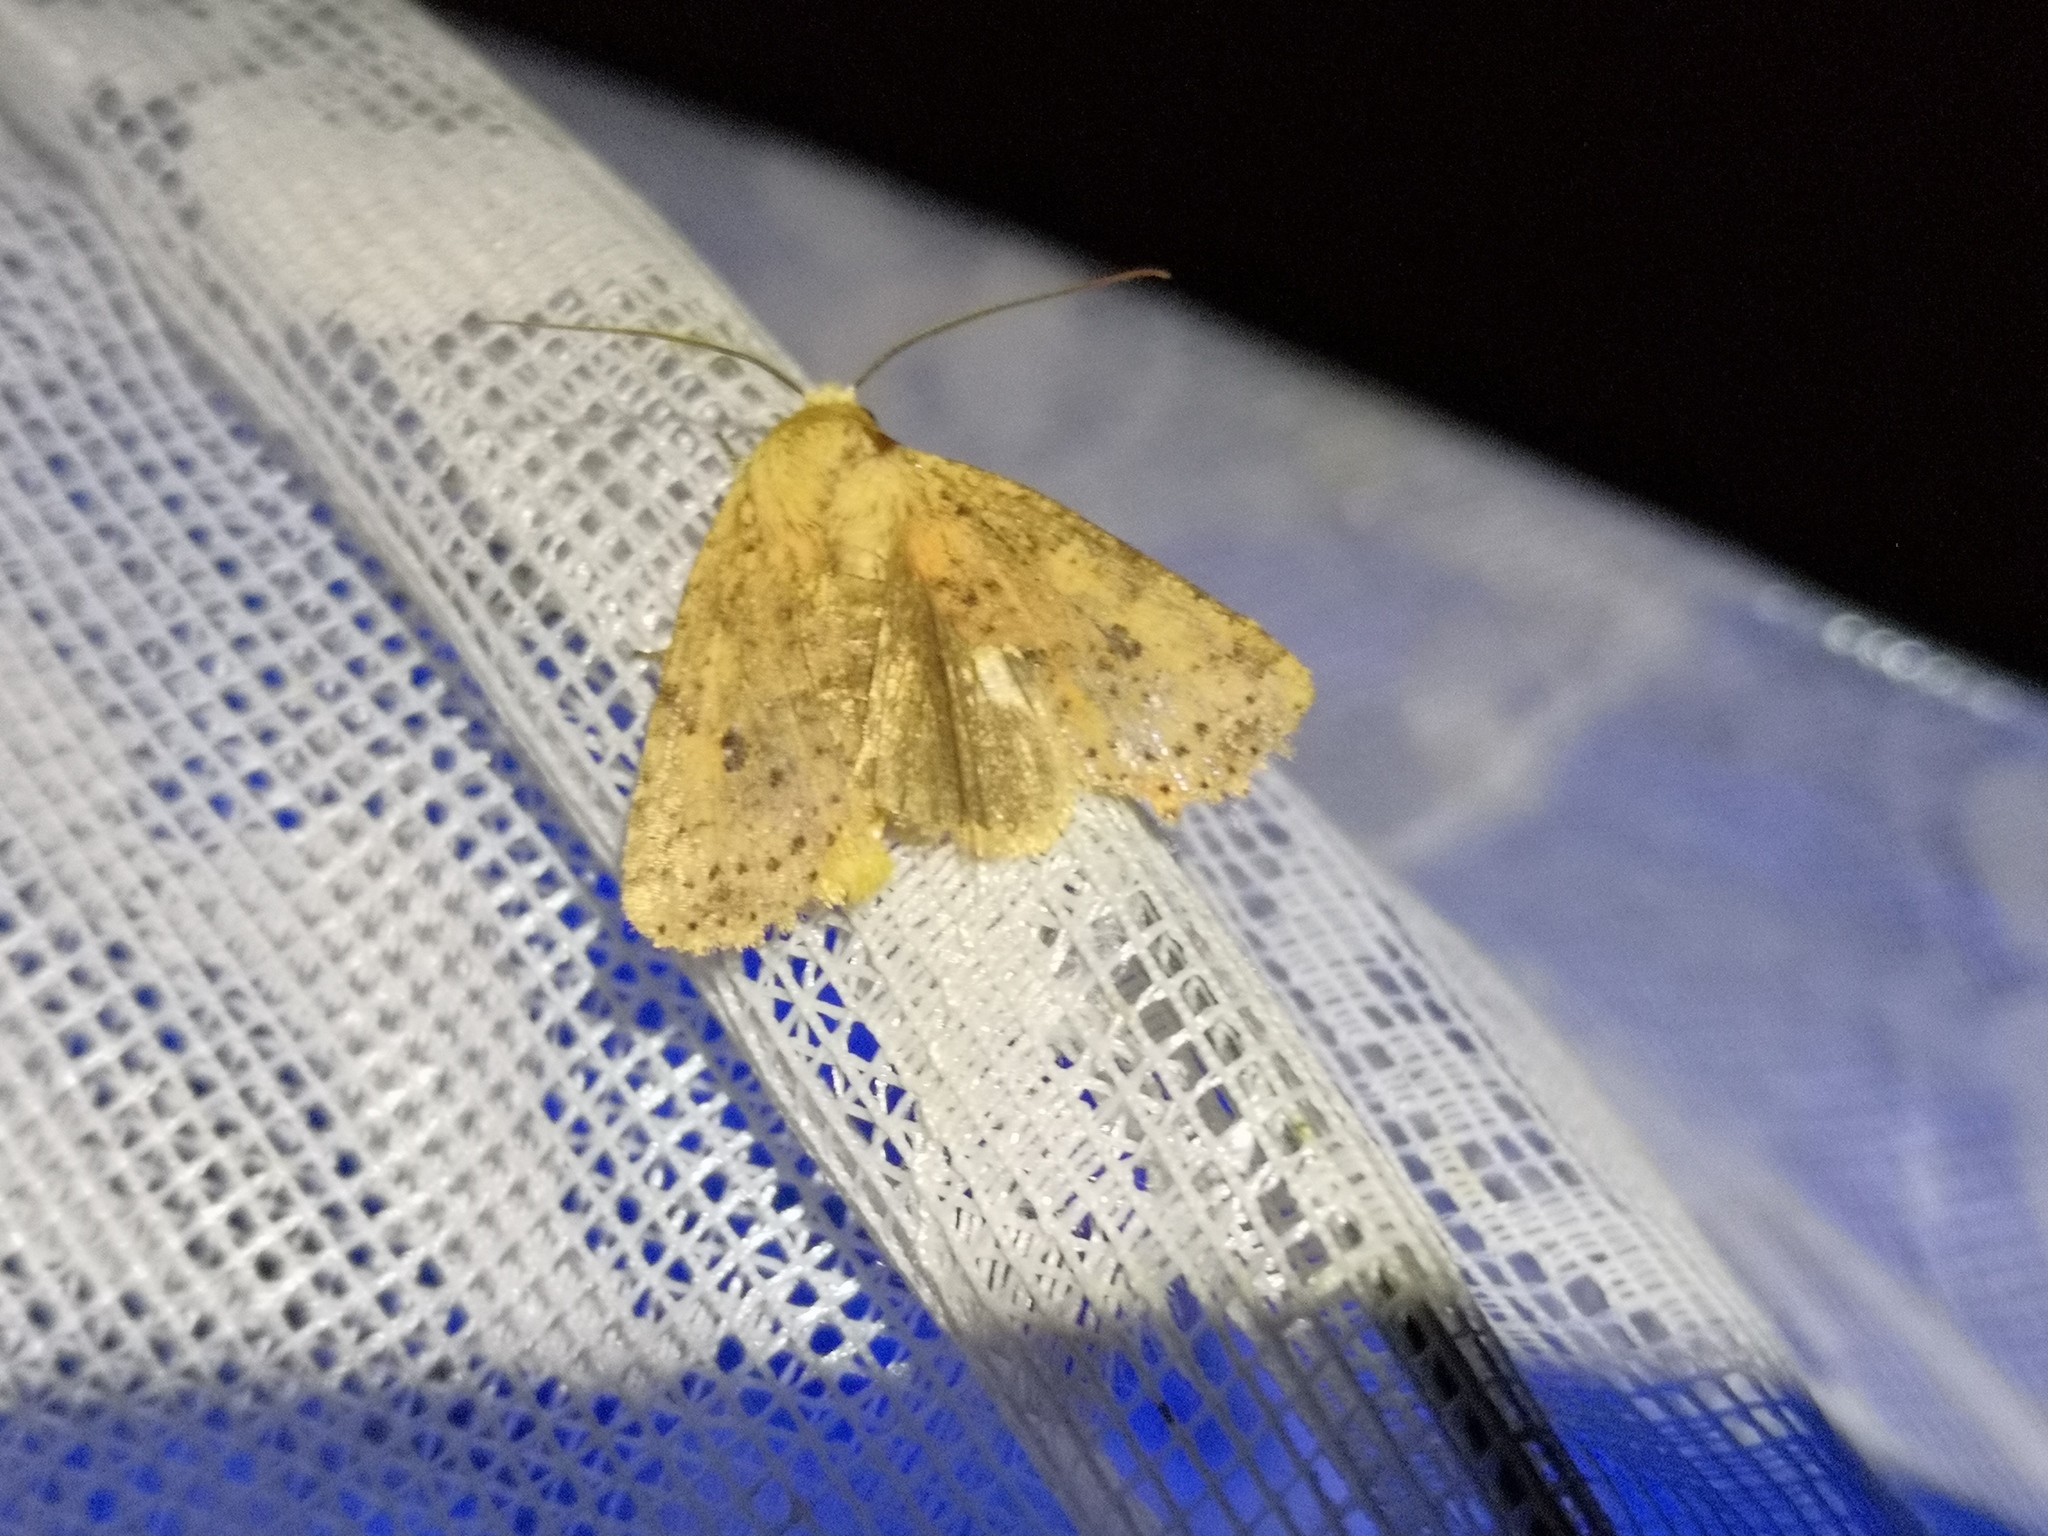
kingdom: Animalia
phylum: Arthropoda
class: Insecta
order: Lepidoptera
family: Noctuidae
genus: Conistra
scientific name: Conistra rubiginea
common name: Dotted chestnut
